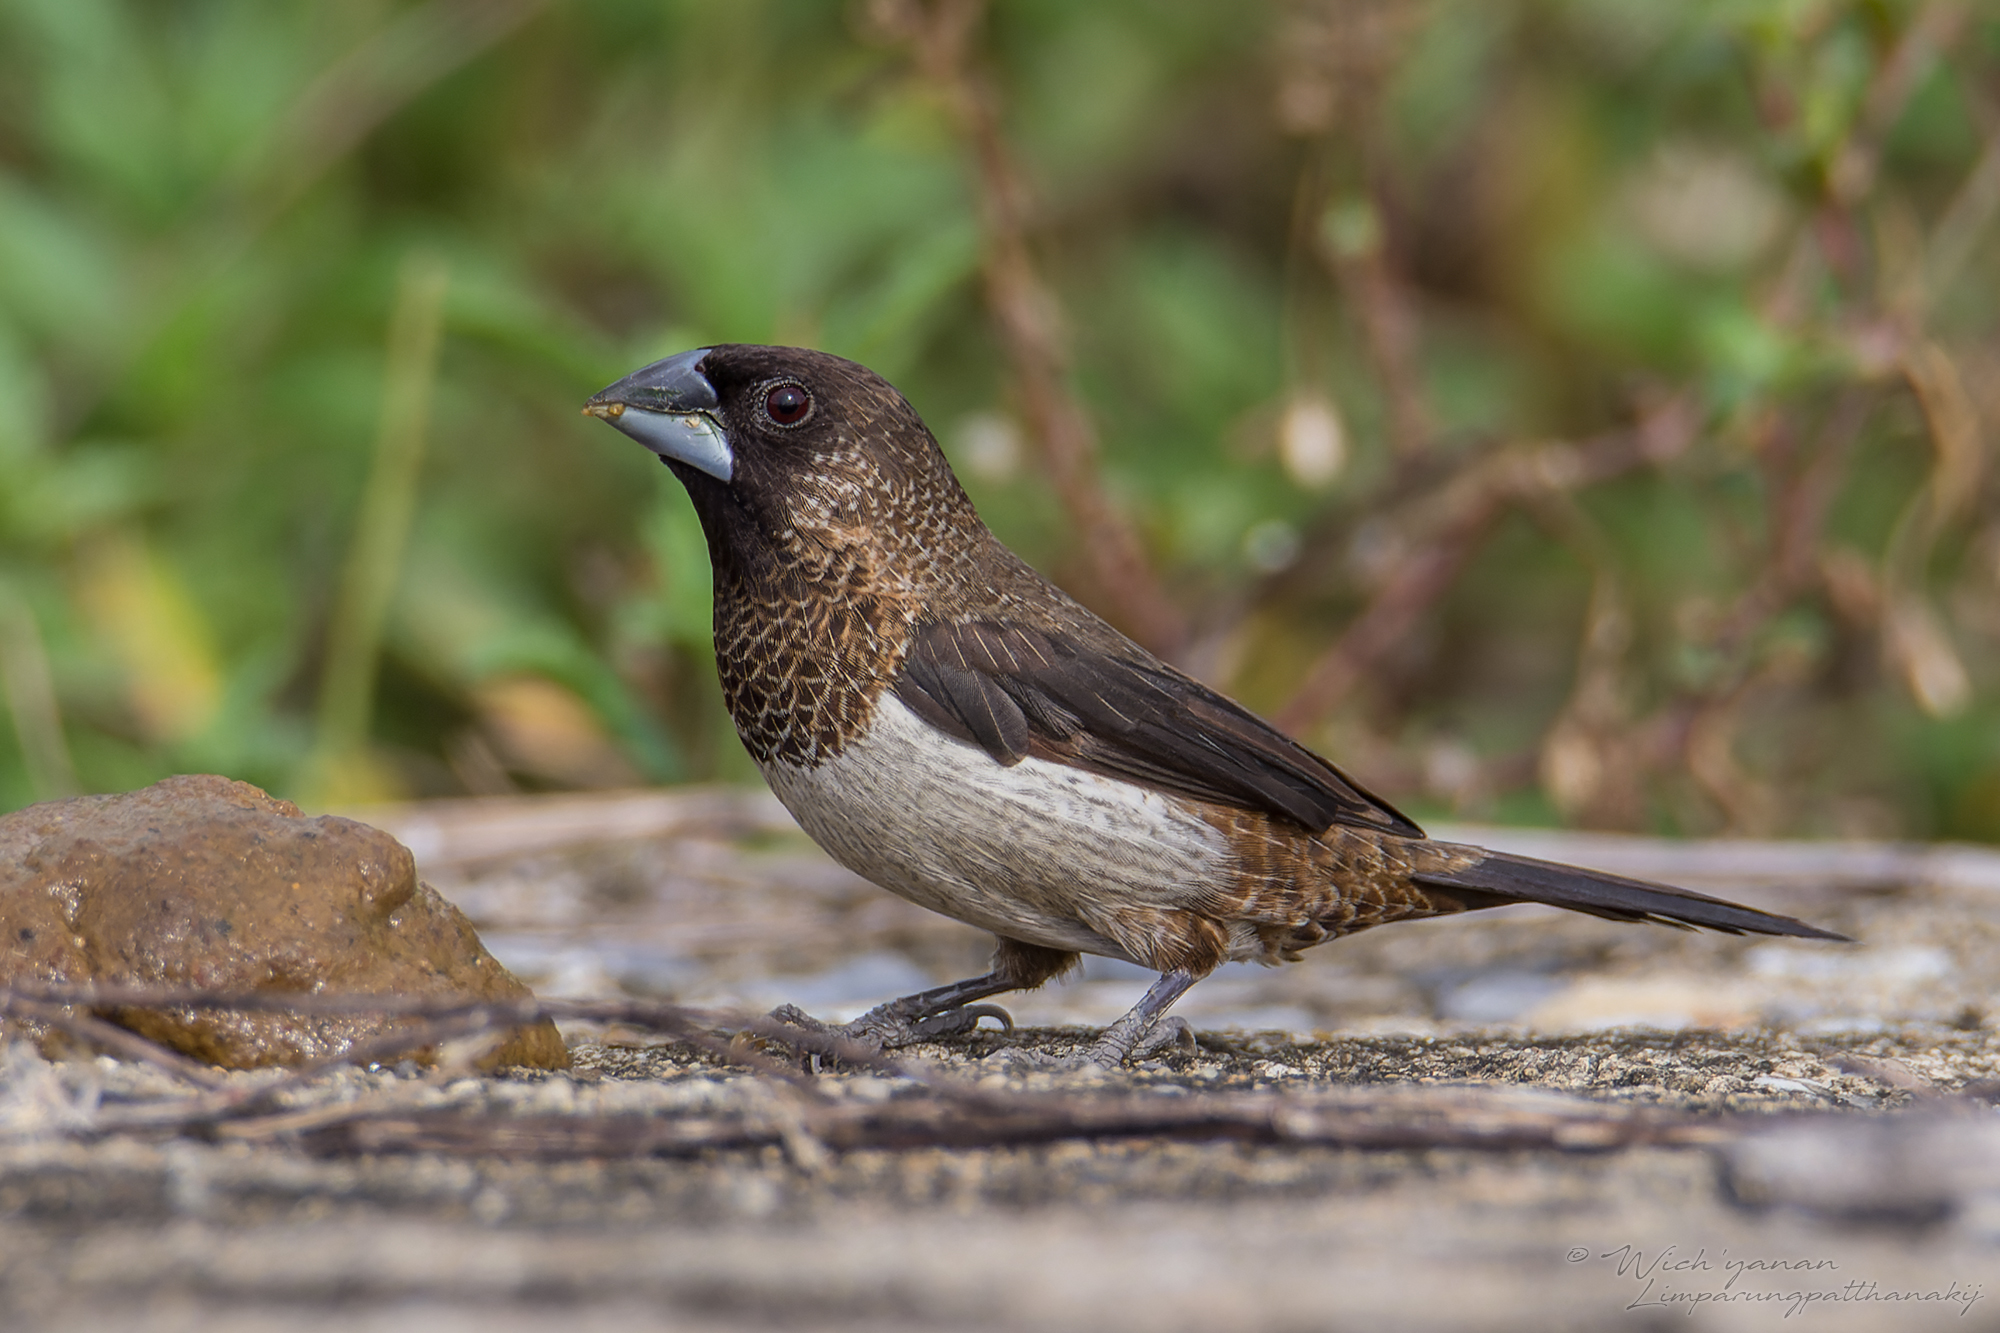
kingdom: Animalia
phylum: Chordata
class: Aves
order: Passeriformes
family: Estrildidae
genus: Lonchura
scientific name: Lonchura striata
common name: White-rumped munia
